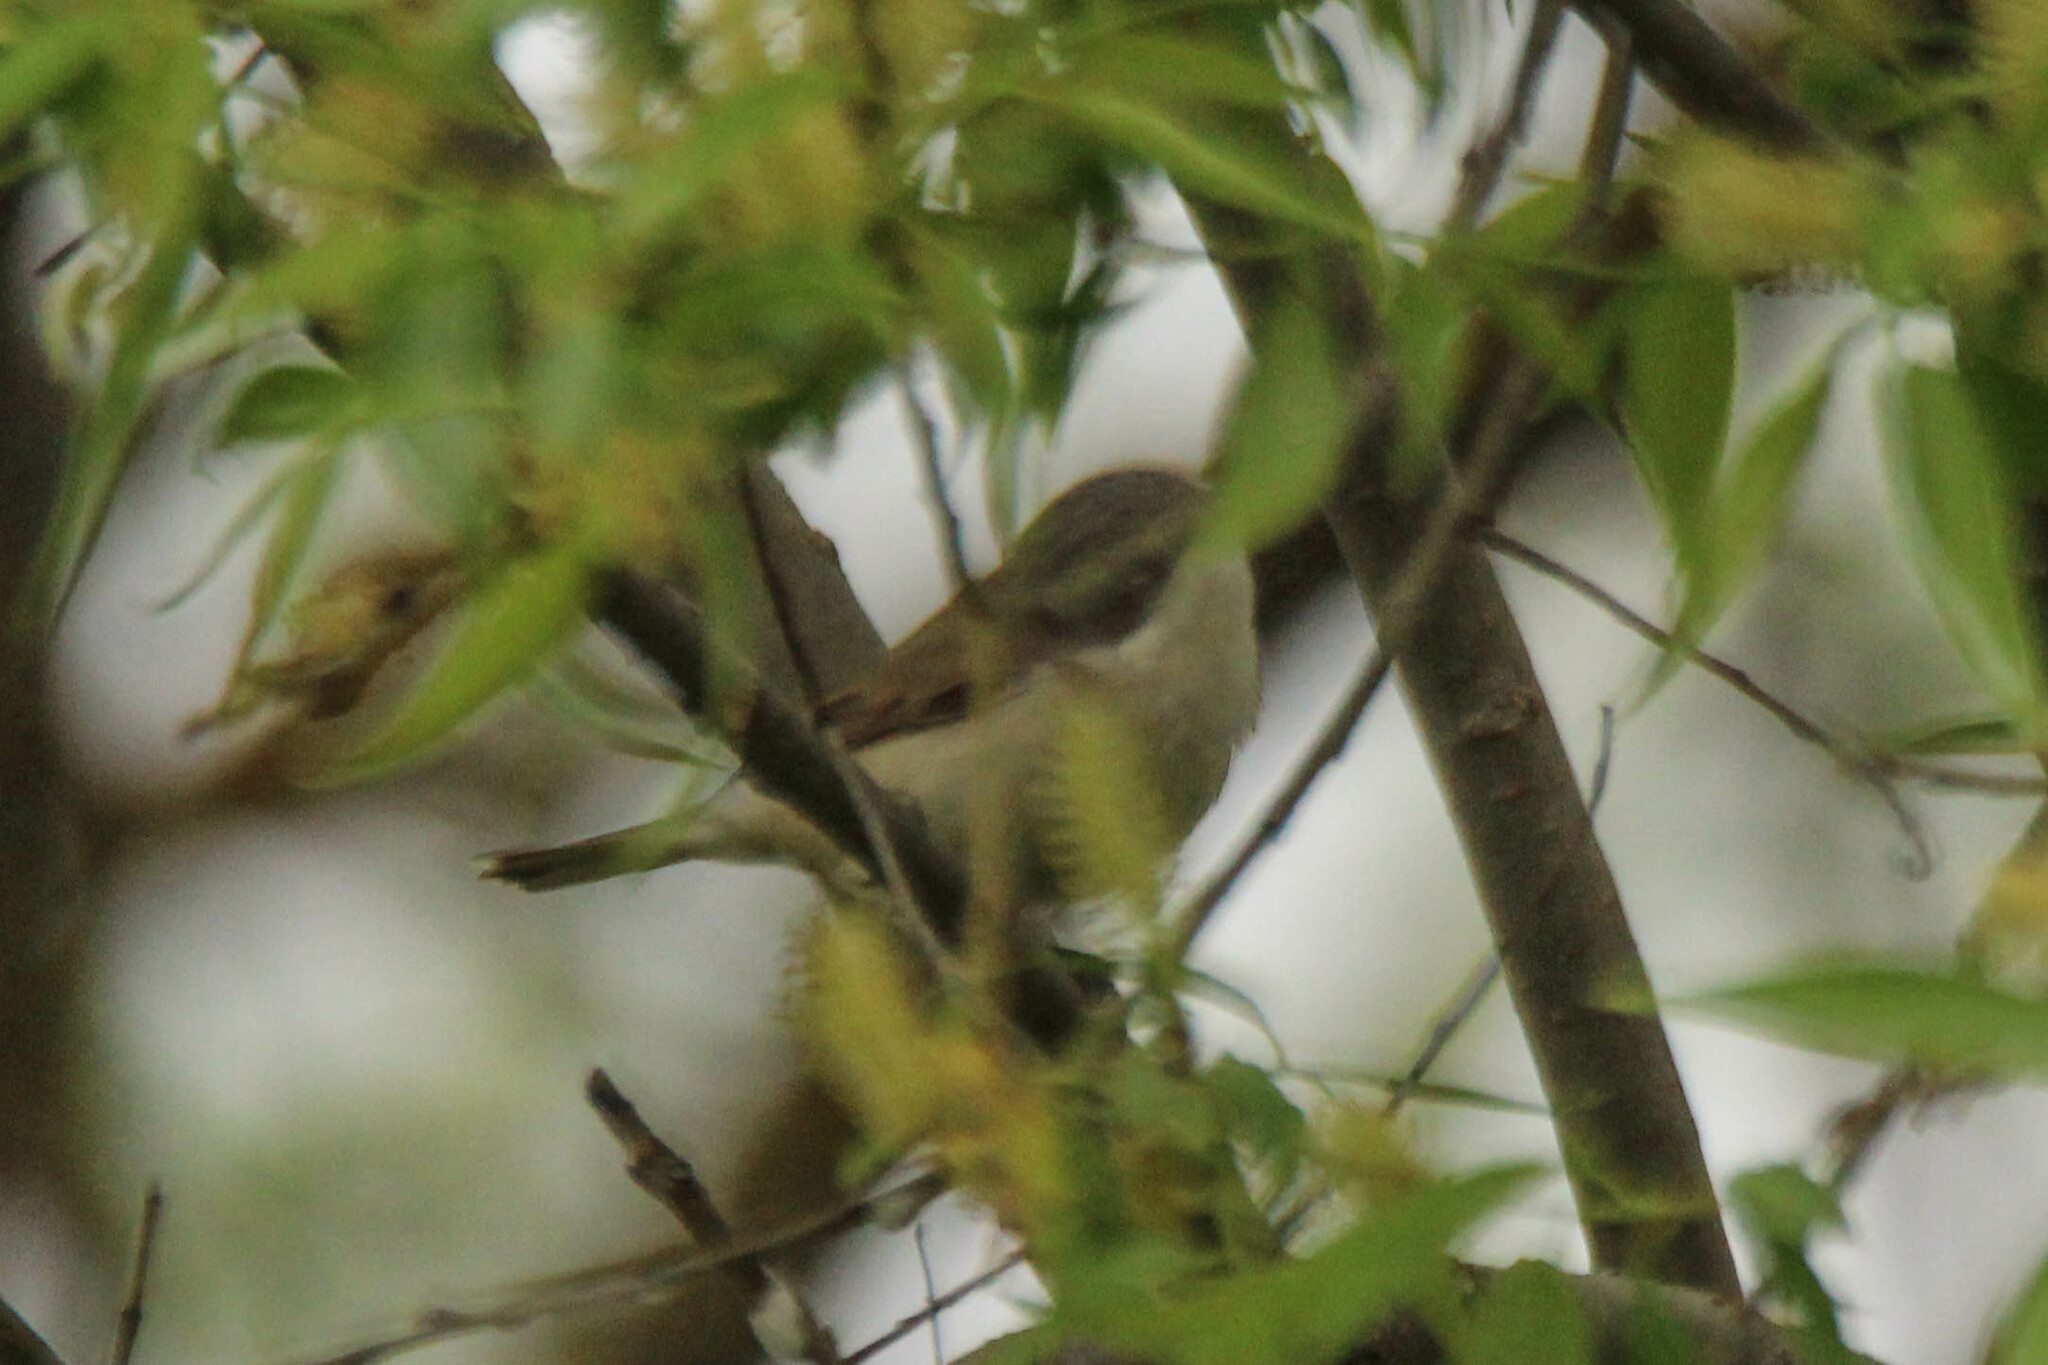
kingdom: Animalia
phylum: Chordata
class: Aves
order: Passeriformes
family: Sylviidae
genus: Sylvia
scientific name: Sylvia curruca
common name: Lesser whitethroat
